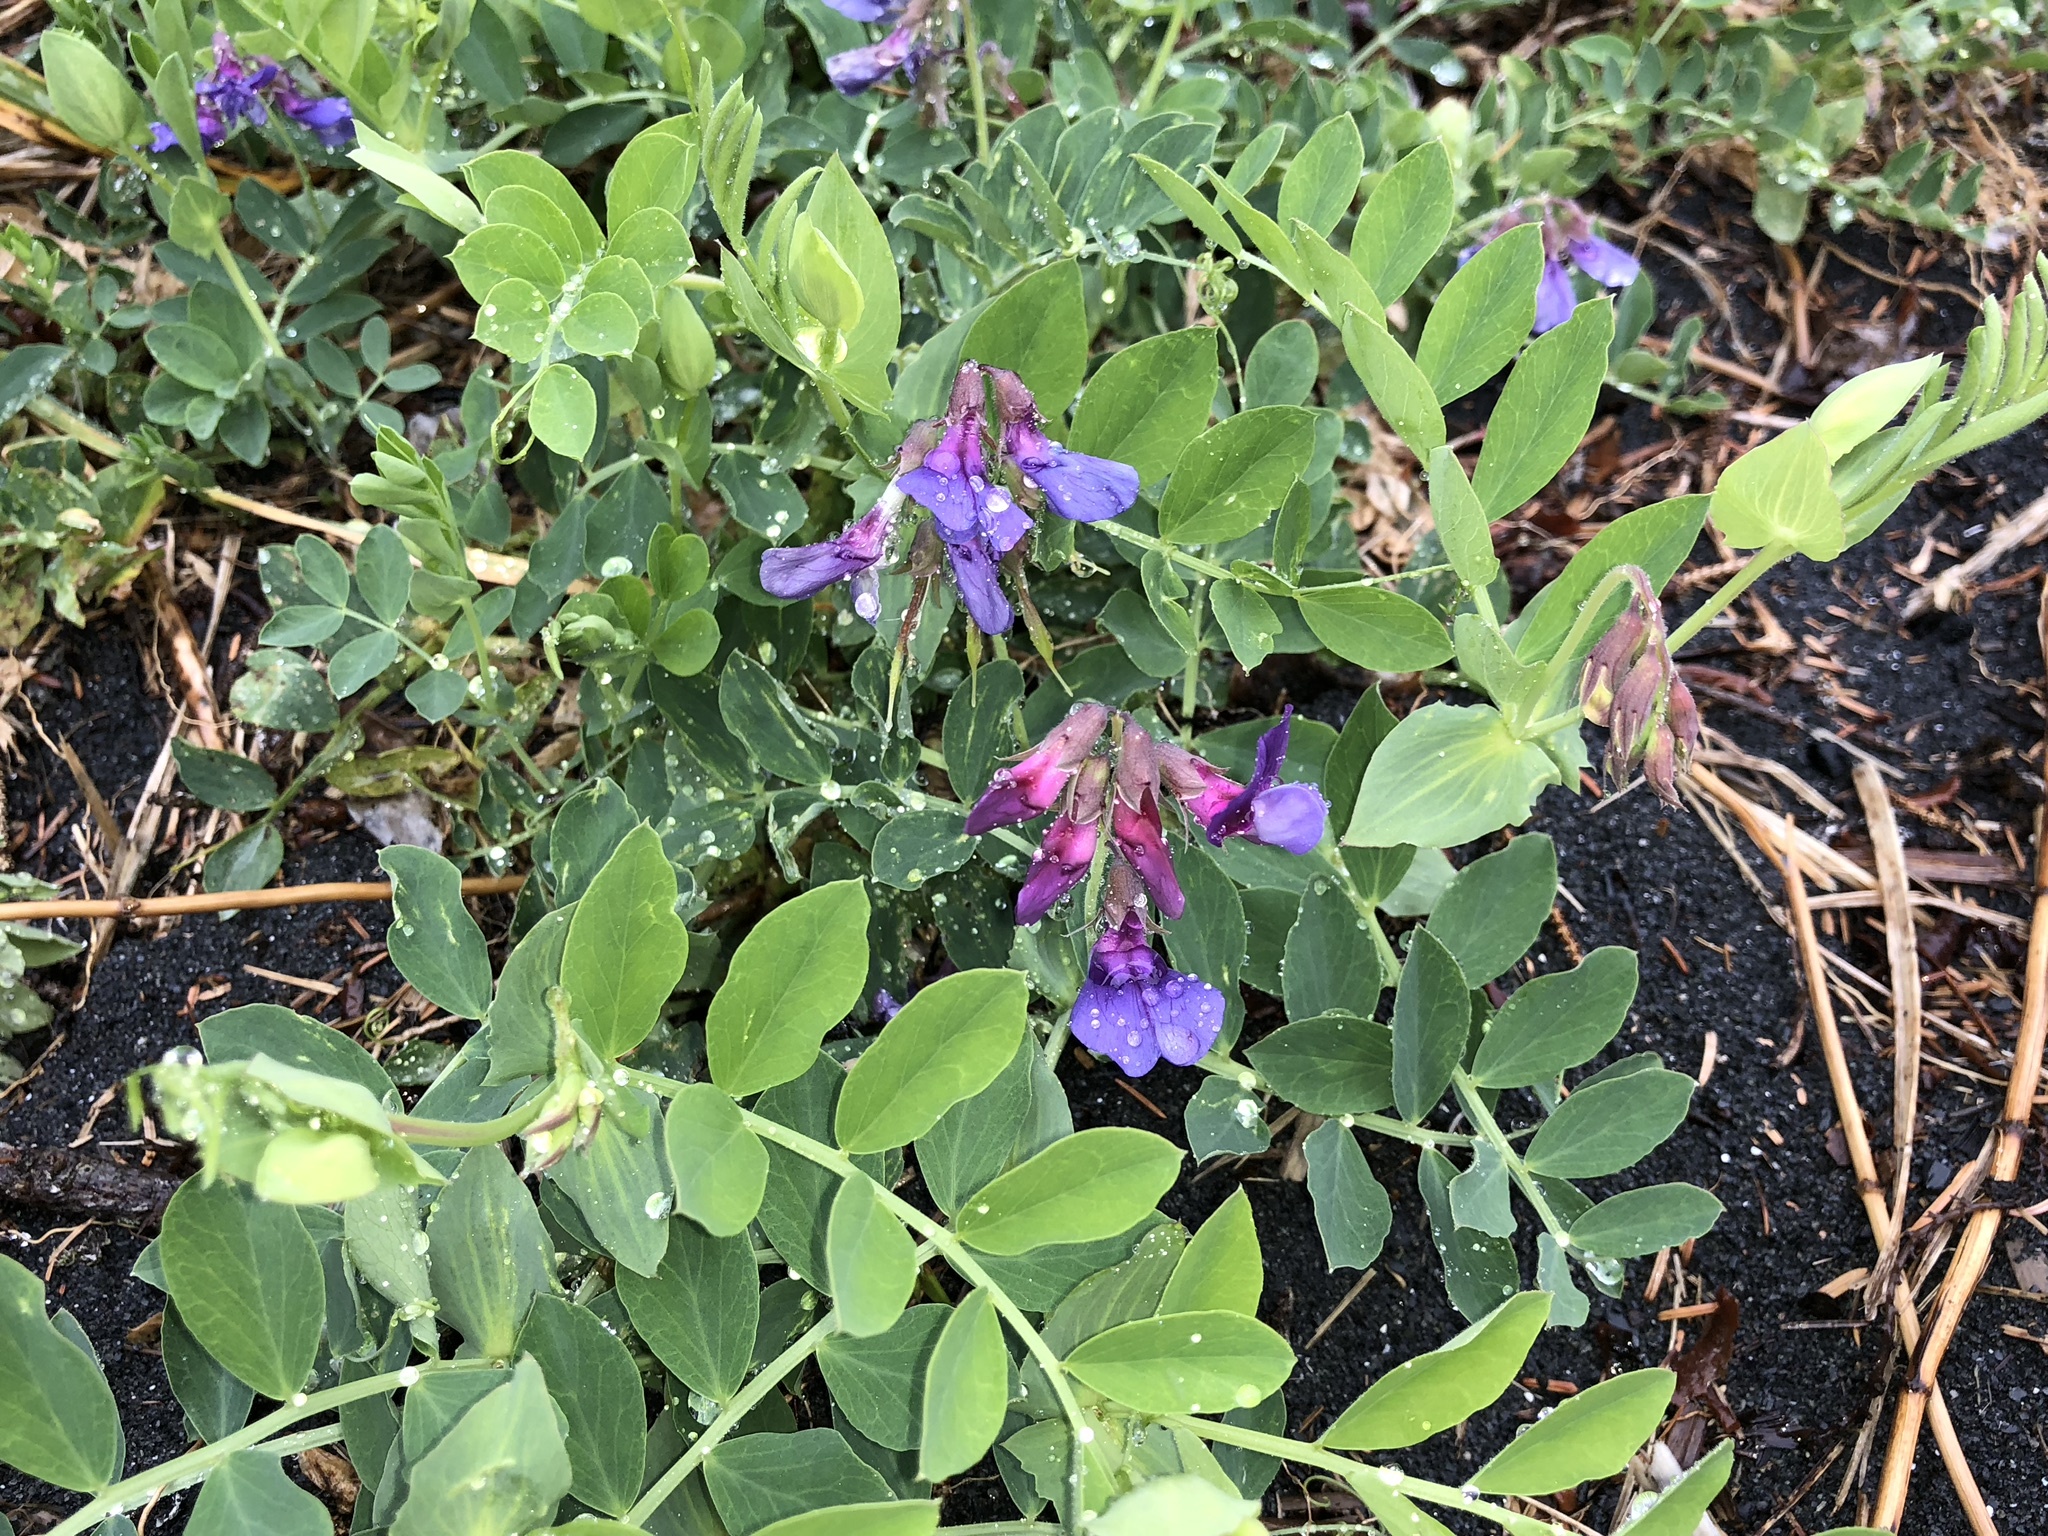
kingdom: Plantae
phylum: Tracheophyta
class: Magnoliopsida
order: Fabales
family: Fabaceae
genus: Lathyrus
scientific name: Lathyrus japonicus
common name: Sea pea
